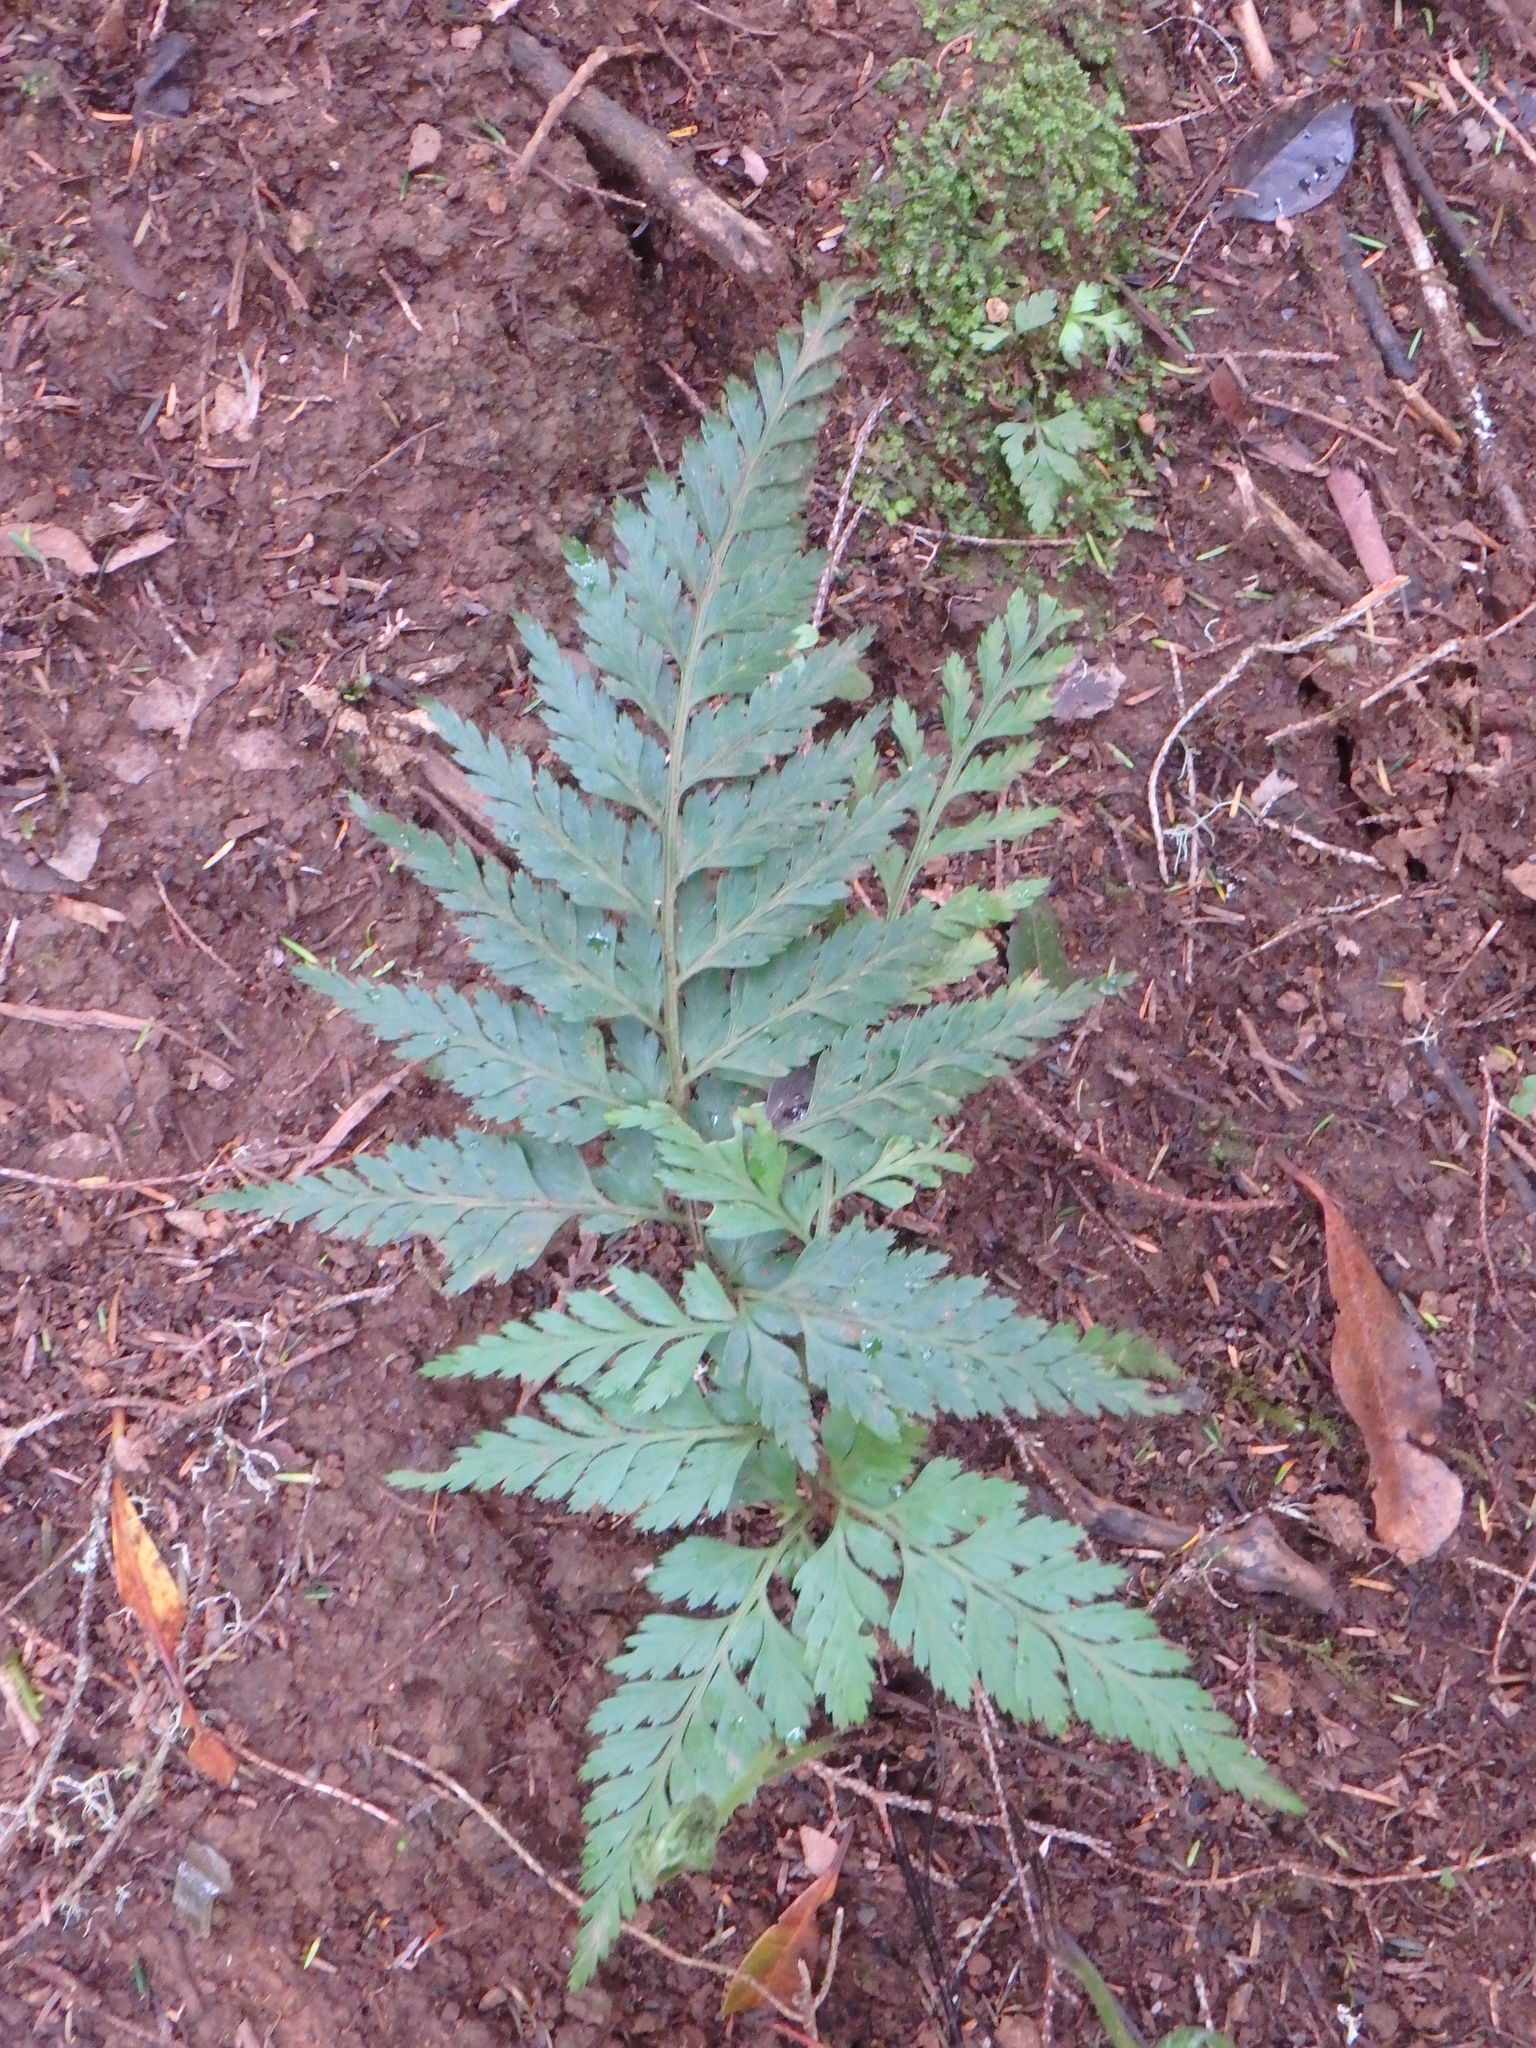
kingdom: Plantae
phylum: Tracheophyta
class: Polypodiopsida
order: Polypodiales
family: Aspleniaceae
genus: Asplenium
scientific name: Asplenium onopteris
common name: Irish spleenwort
